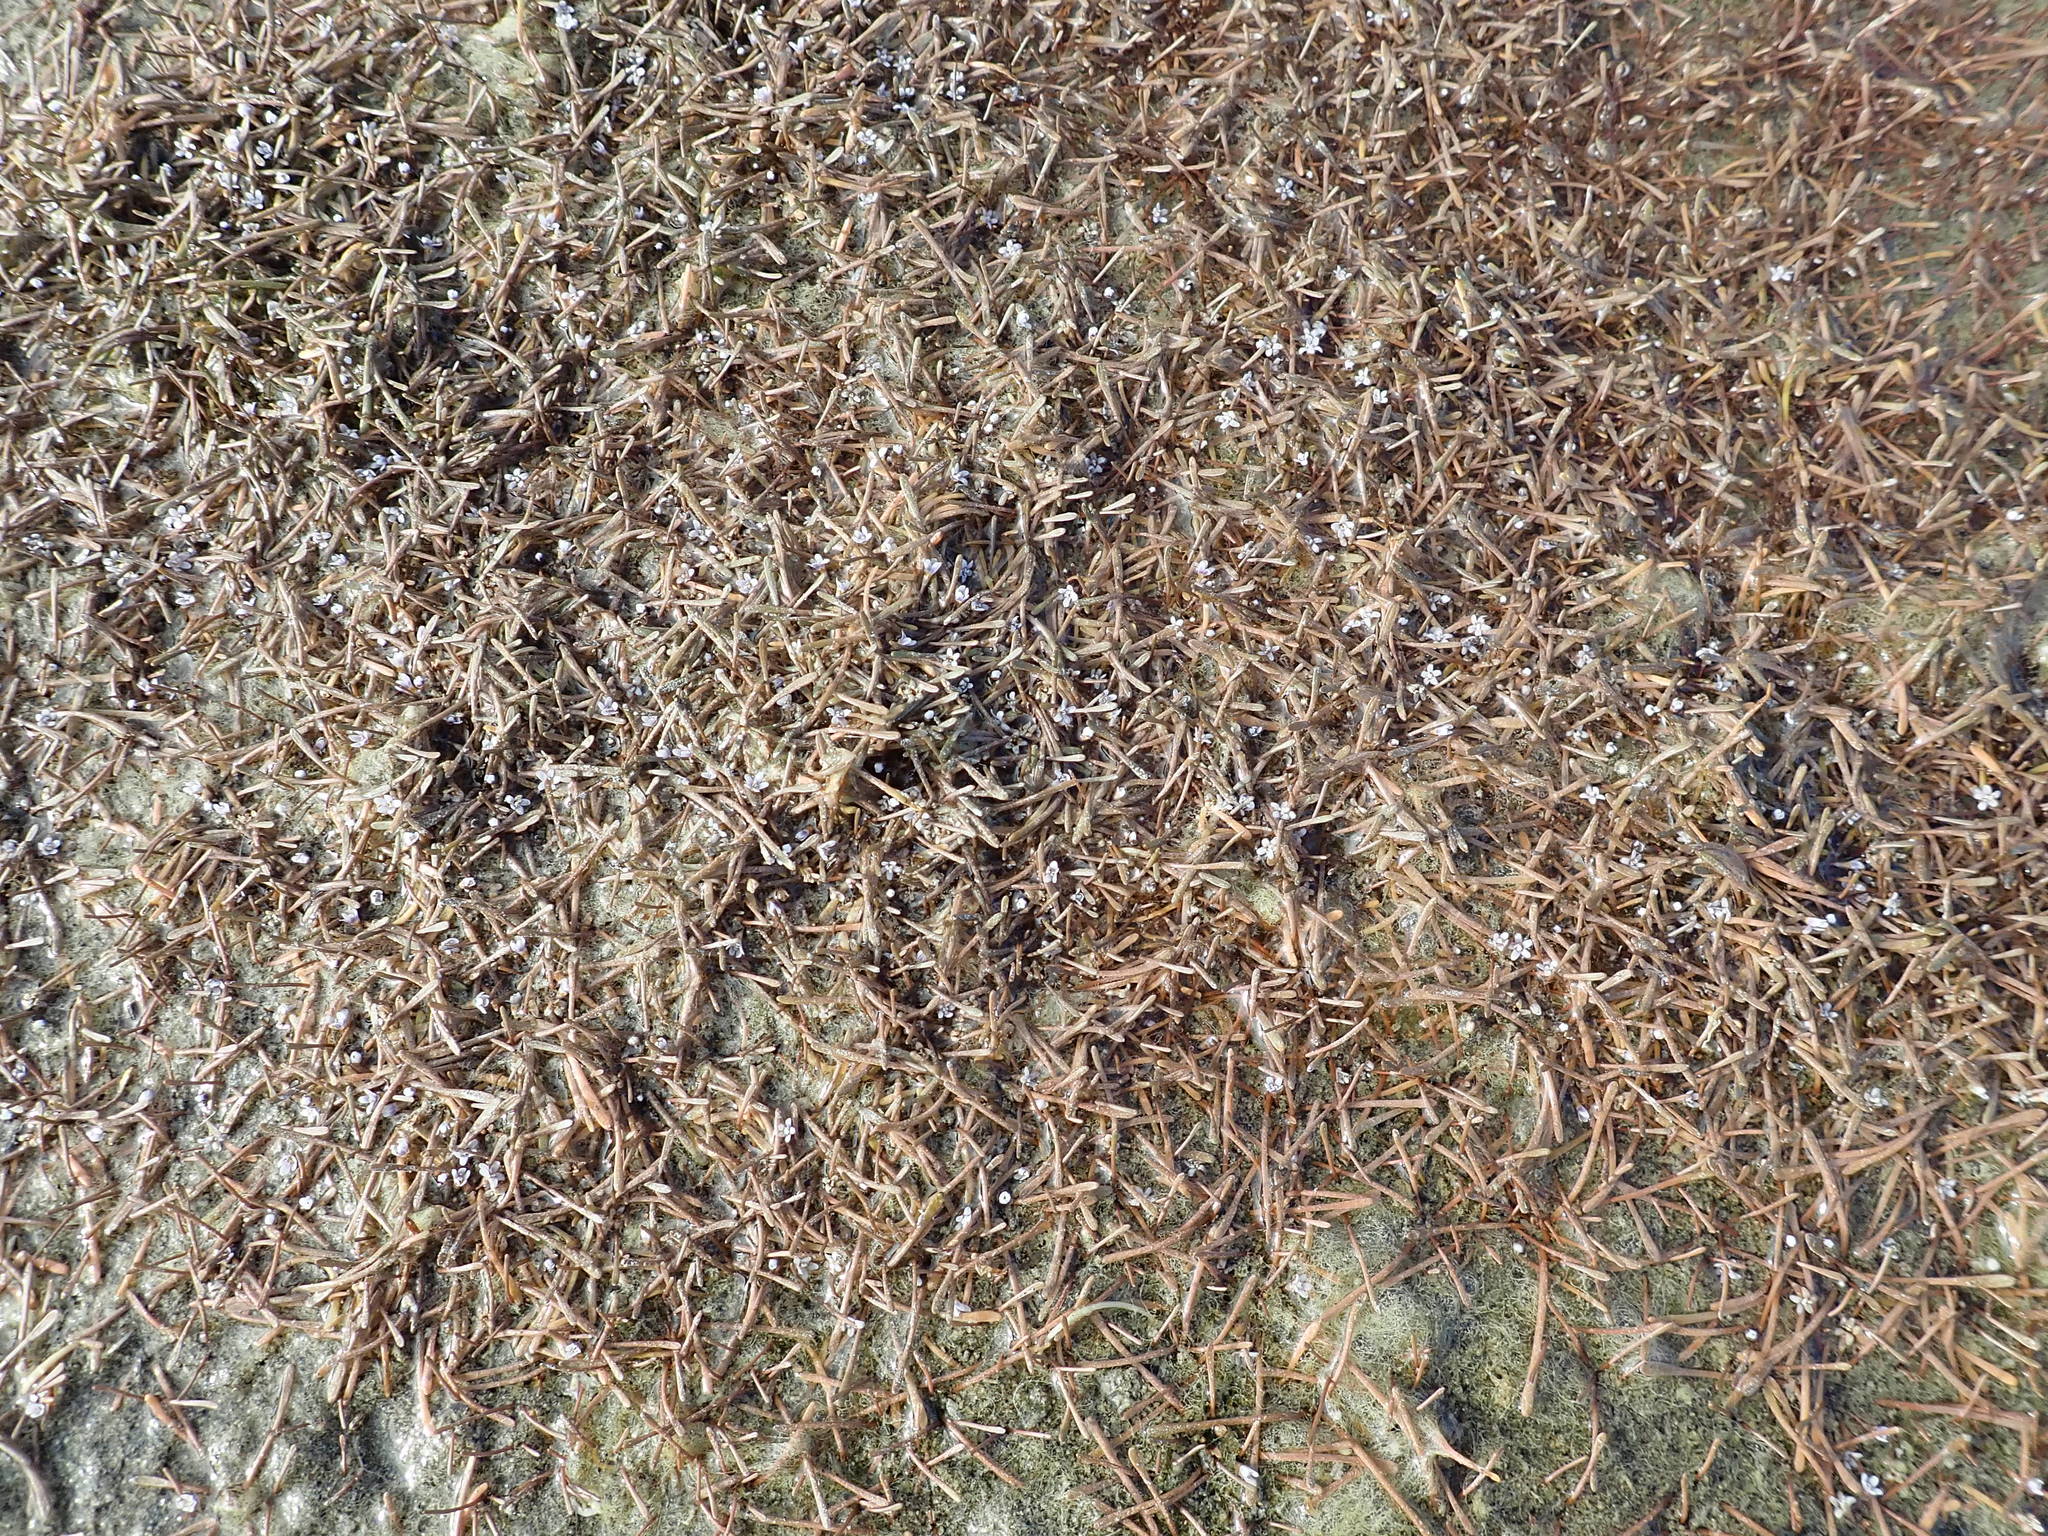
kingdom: Plantae
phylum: Tracheophyta
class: Magnoliopsida
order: Lamiales
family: Scrophulariaceae
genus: Limosella
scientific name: Limosella australis
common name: Welsh mudwort
